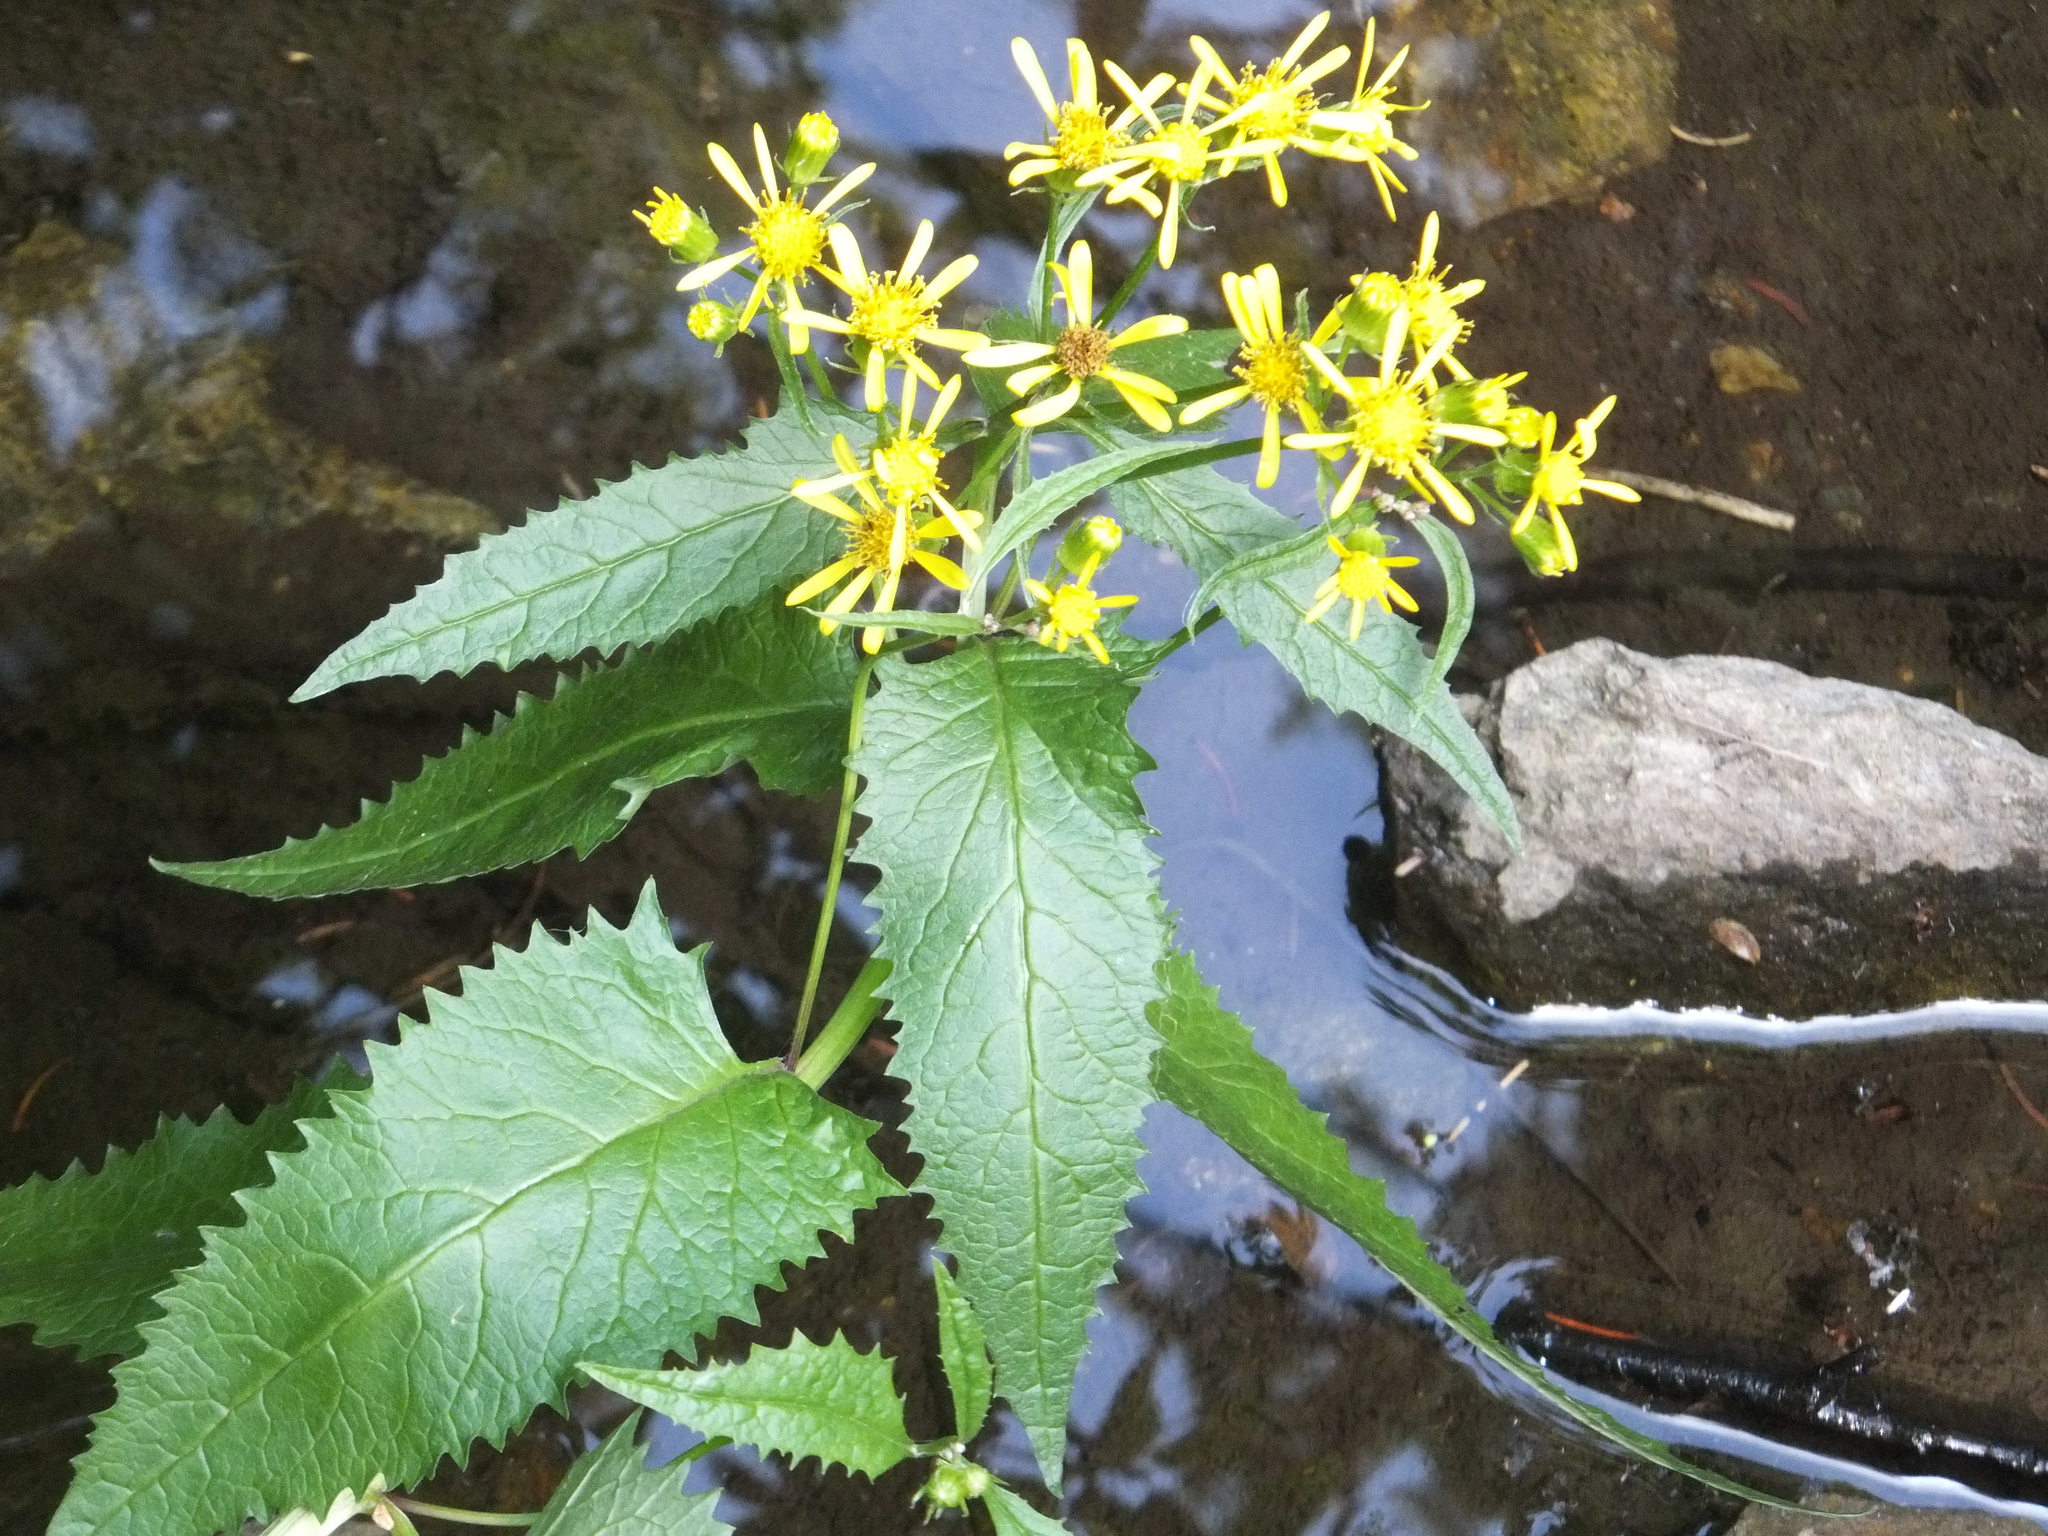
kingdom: Plantae
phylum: Tracheophyta
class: Magnoliopsida
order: Asterales
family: Asteraceae
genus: Senecio
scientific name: Senecio triangularis
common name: Arrowleaf butterweed
